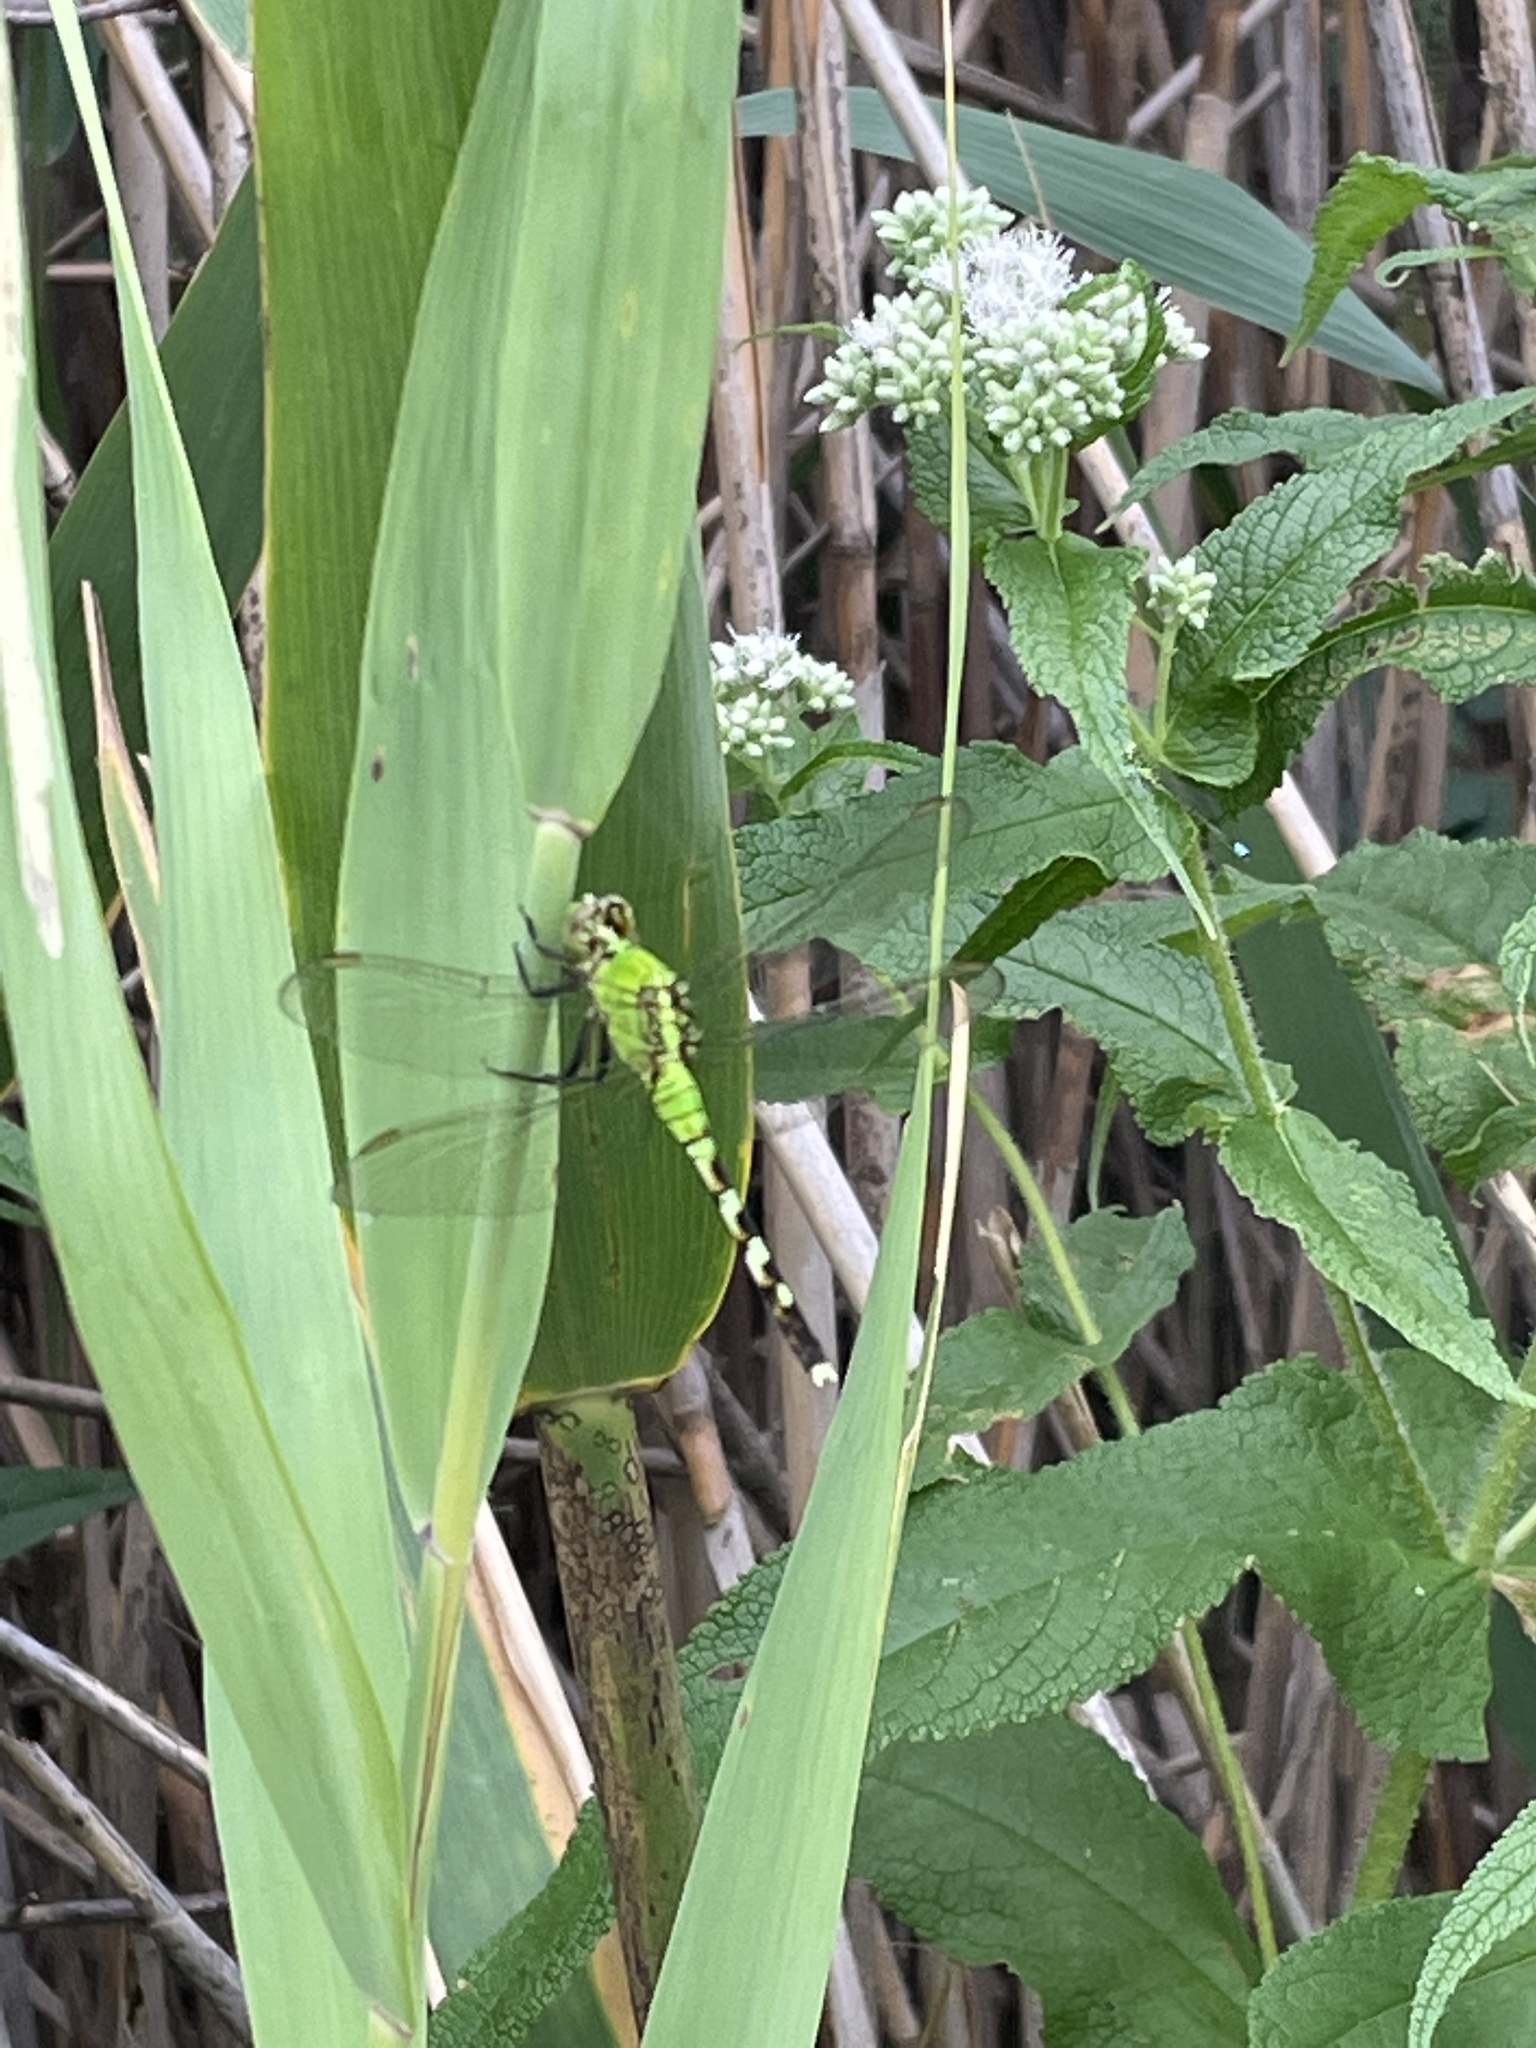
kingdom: Animalia
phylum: Arthropoda
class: Insecta
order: Odonata
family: Libellulidae
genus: Erythemis
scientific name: Erythemis simplicicollis
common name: Eastern pondhawk
